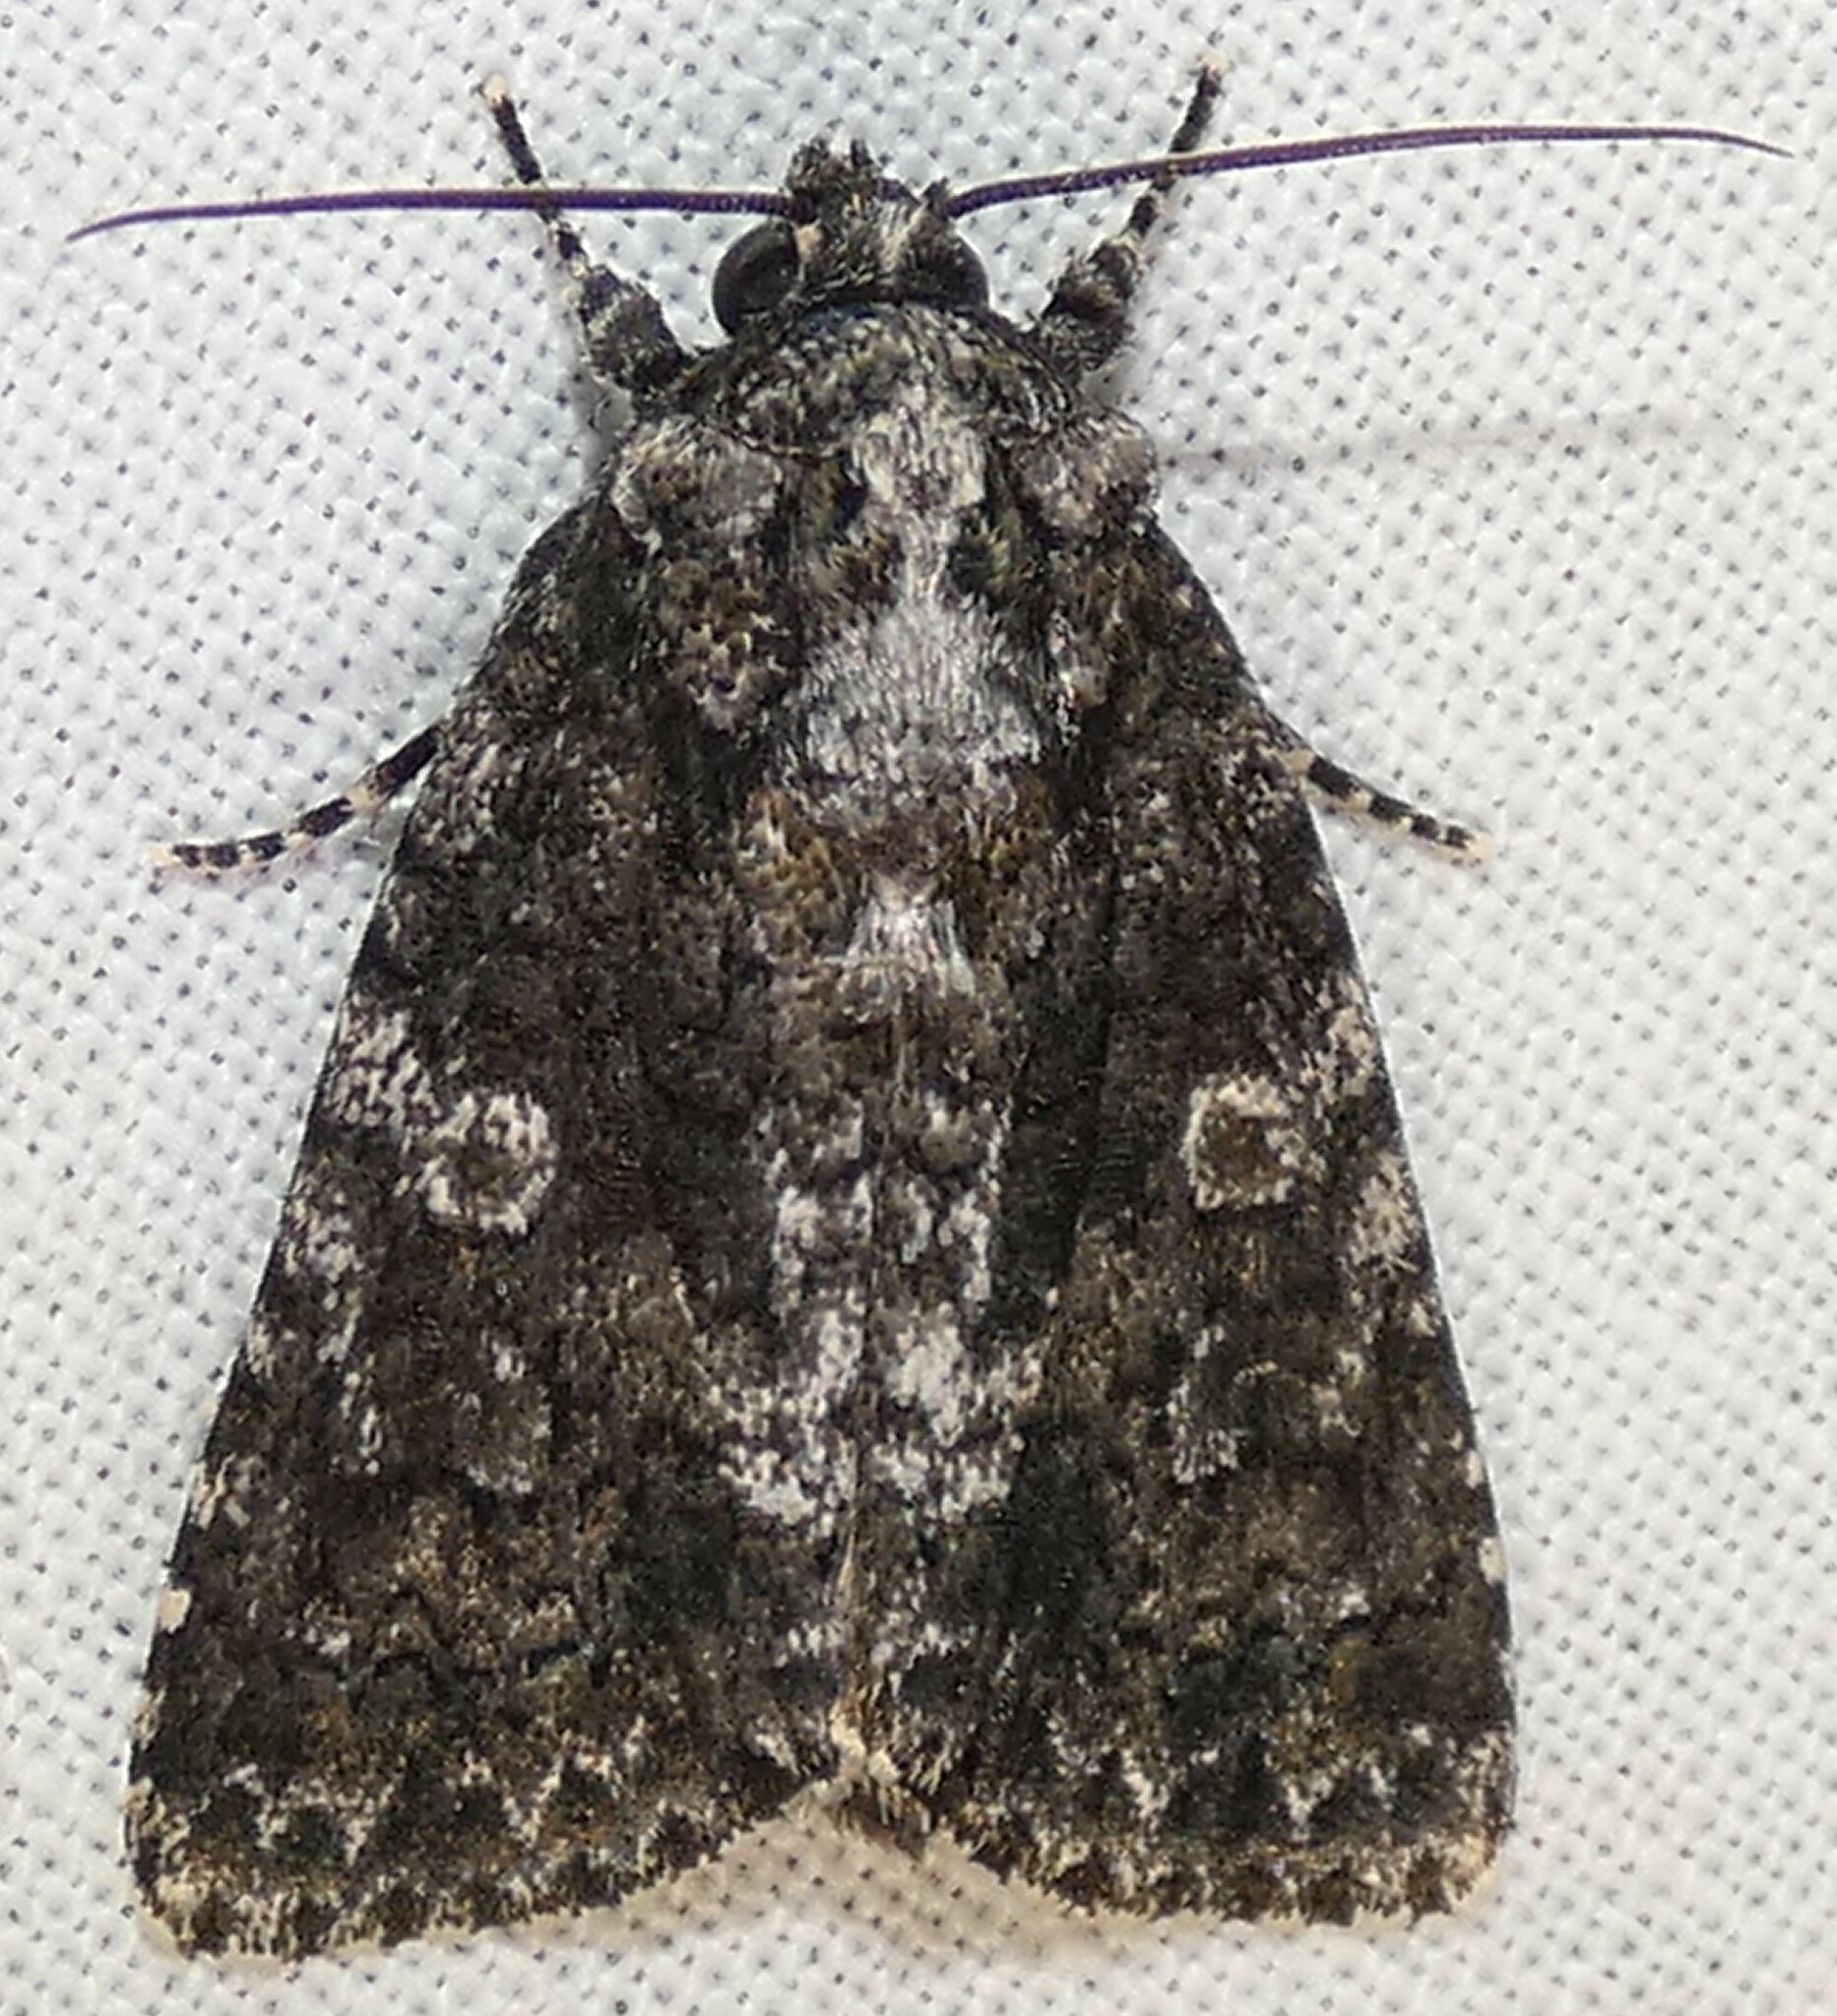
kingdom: Animalia
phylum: Arthropoda
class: Insecta
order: Lepidoptera
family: Noctuidae
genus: Acronicta
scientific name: Acronicta afflicta
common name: Afflicted dagger moth
